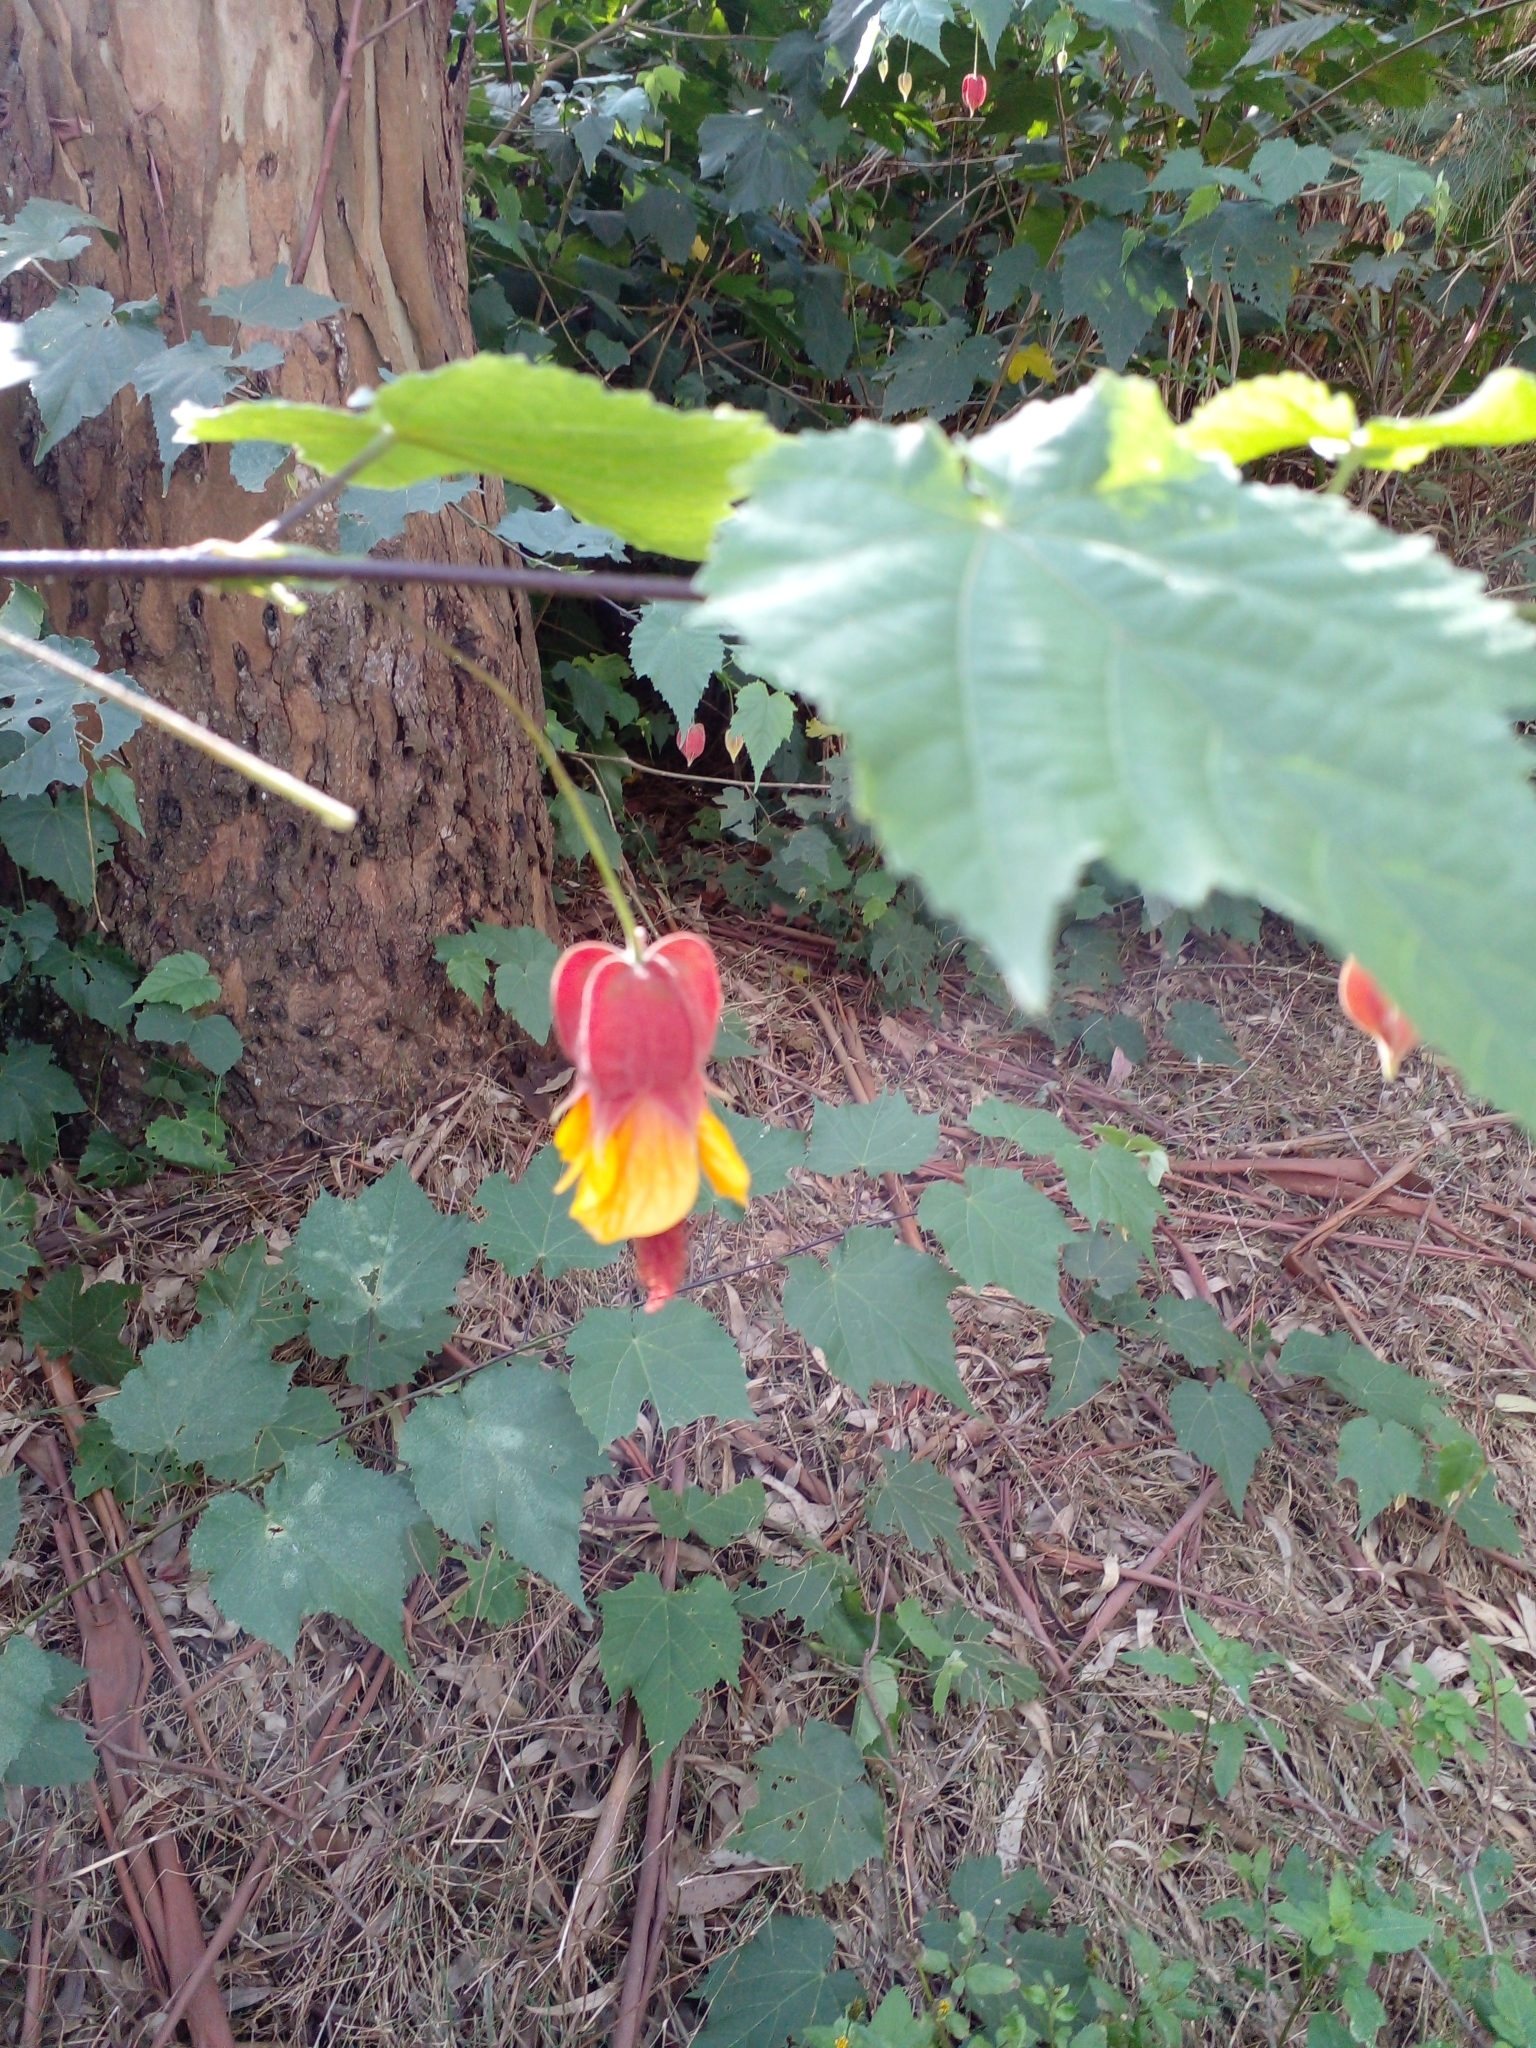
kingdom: Plantae
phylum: Tracheophyta
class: Magnoliopsida
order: Malvales
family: Malvaceae
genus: Callianthe
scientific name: Callianthe megapotamica
